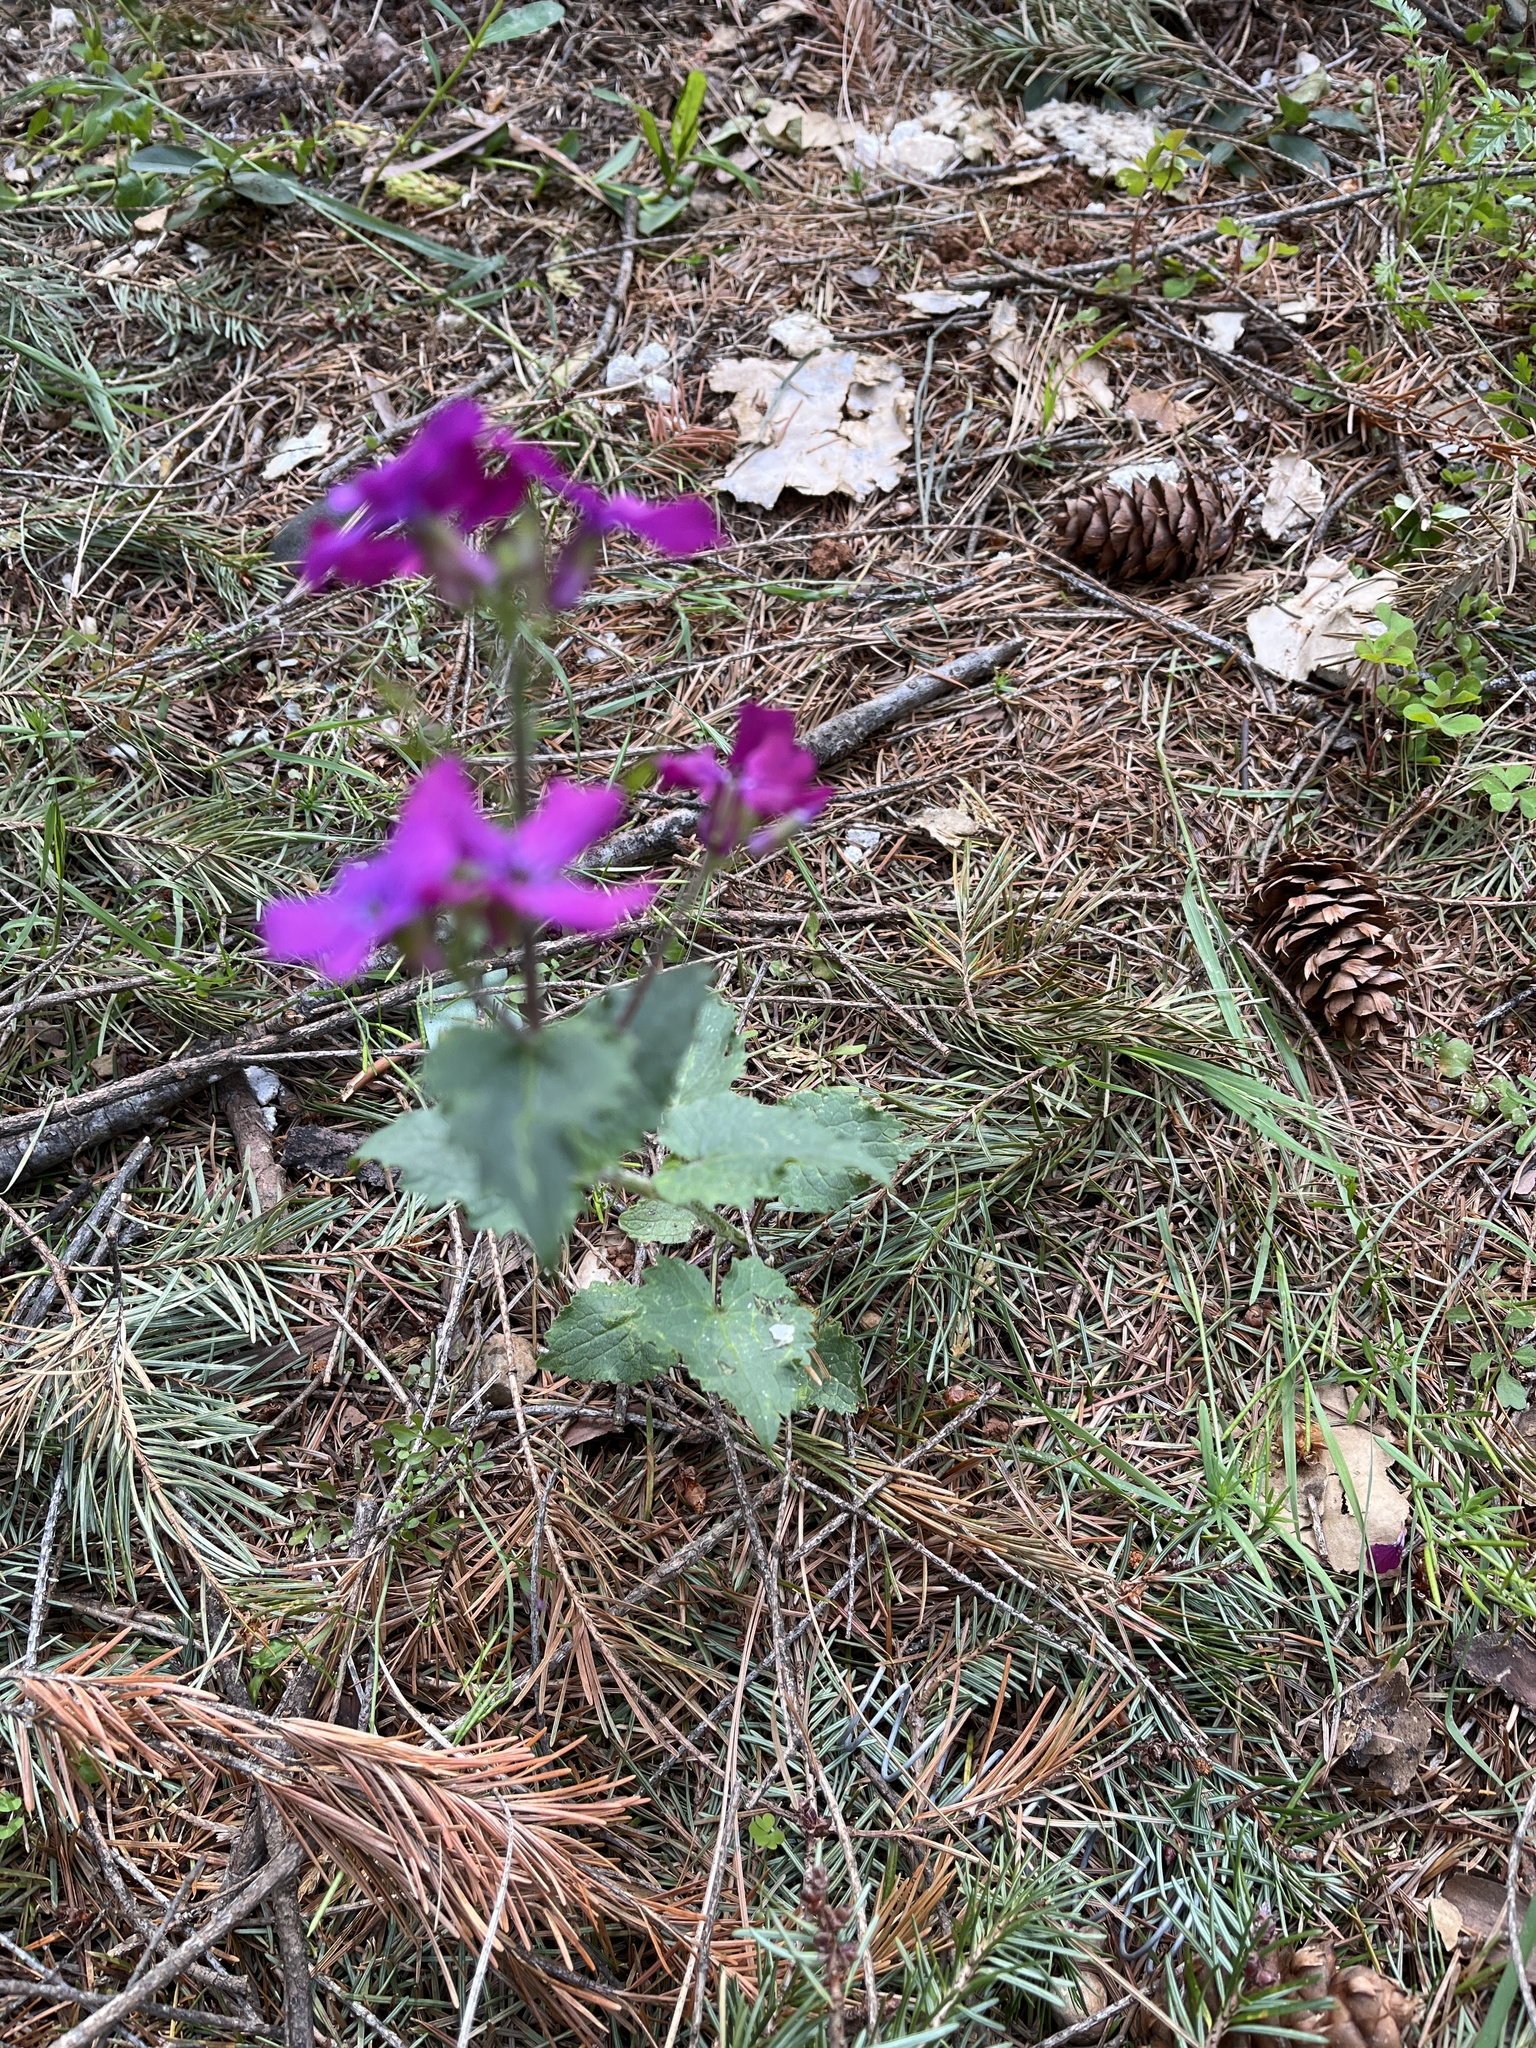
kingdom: Plantae
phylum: Tracheophyta
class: Magnoliopsida
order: Brassicales
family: Brassicaceae
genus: Lunaria
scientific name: Lunaria annua
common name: Honesty
